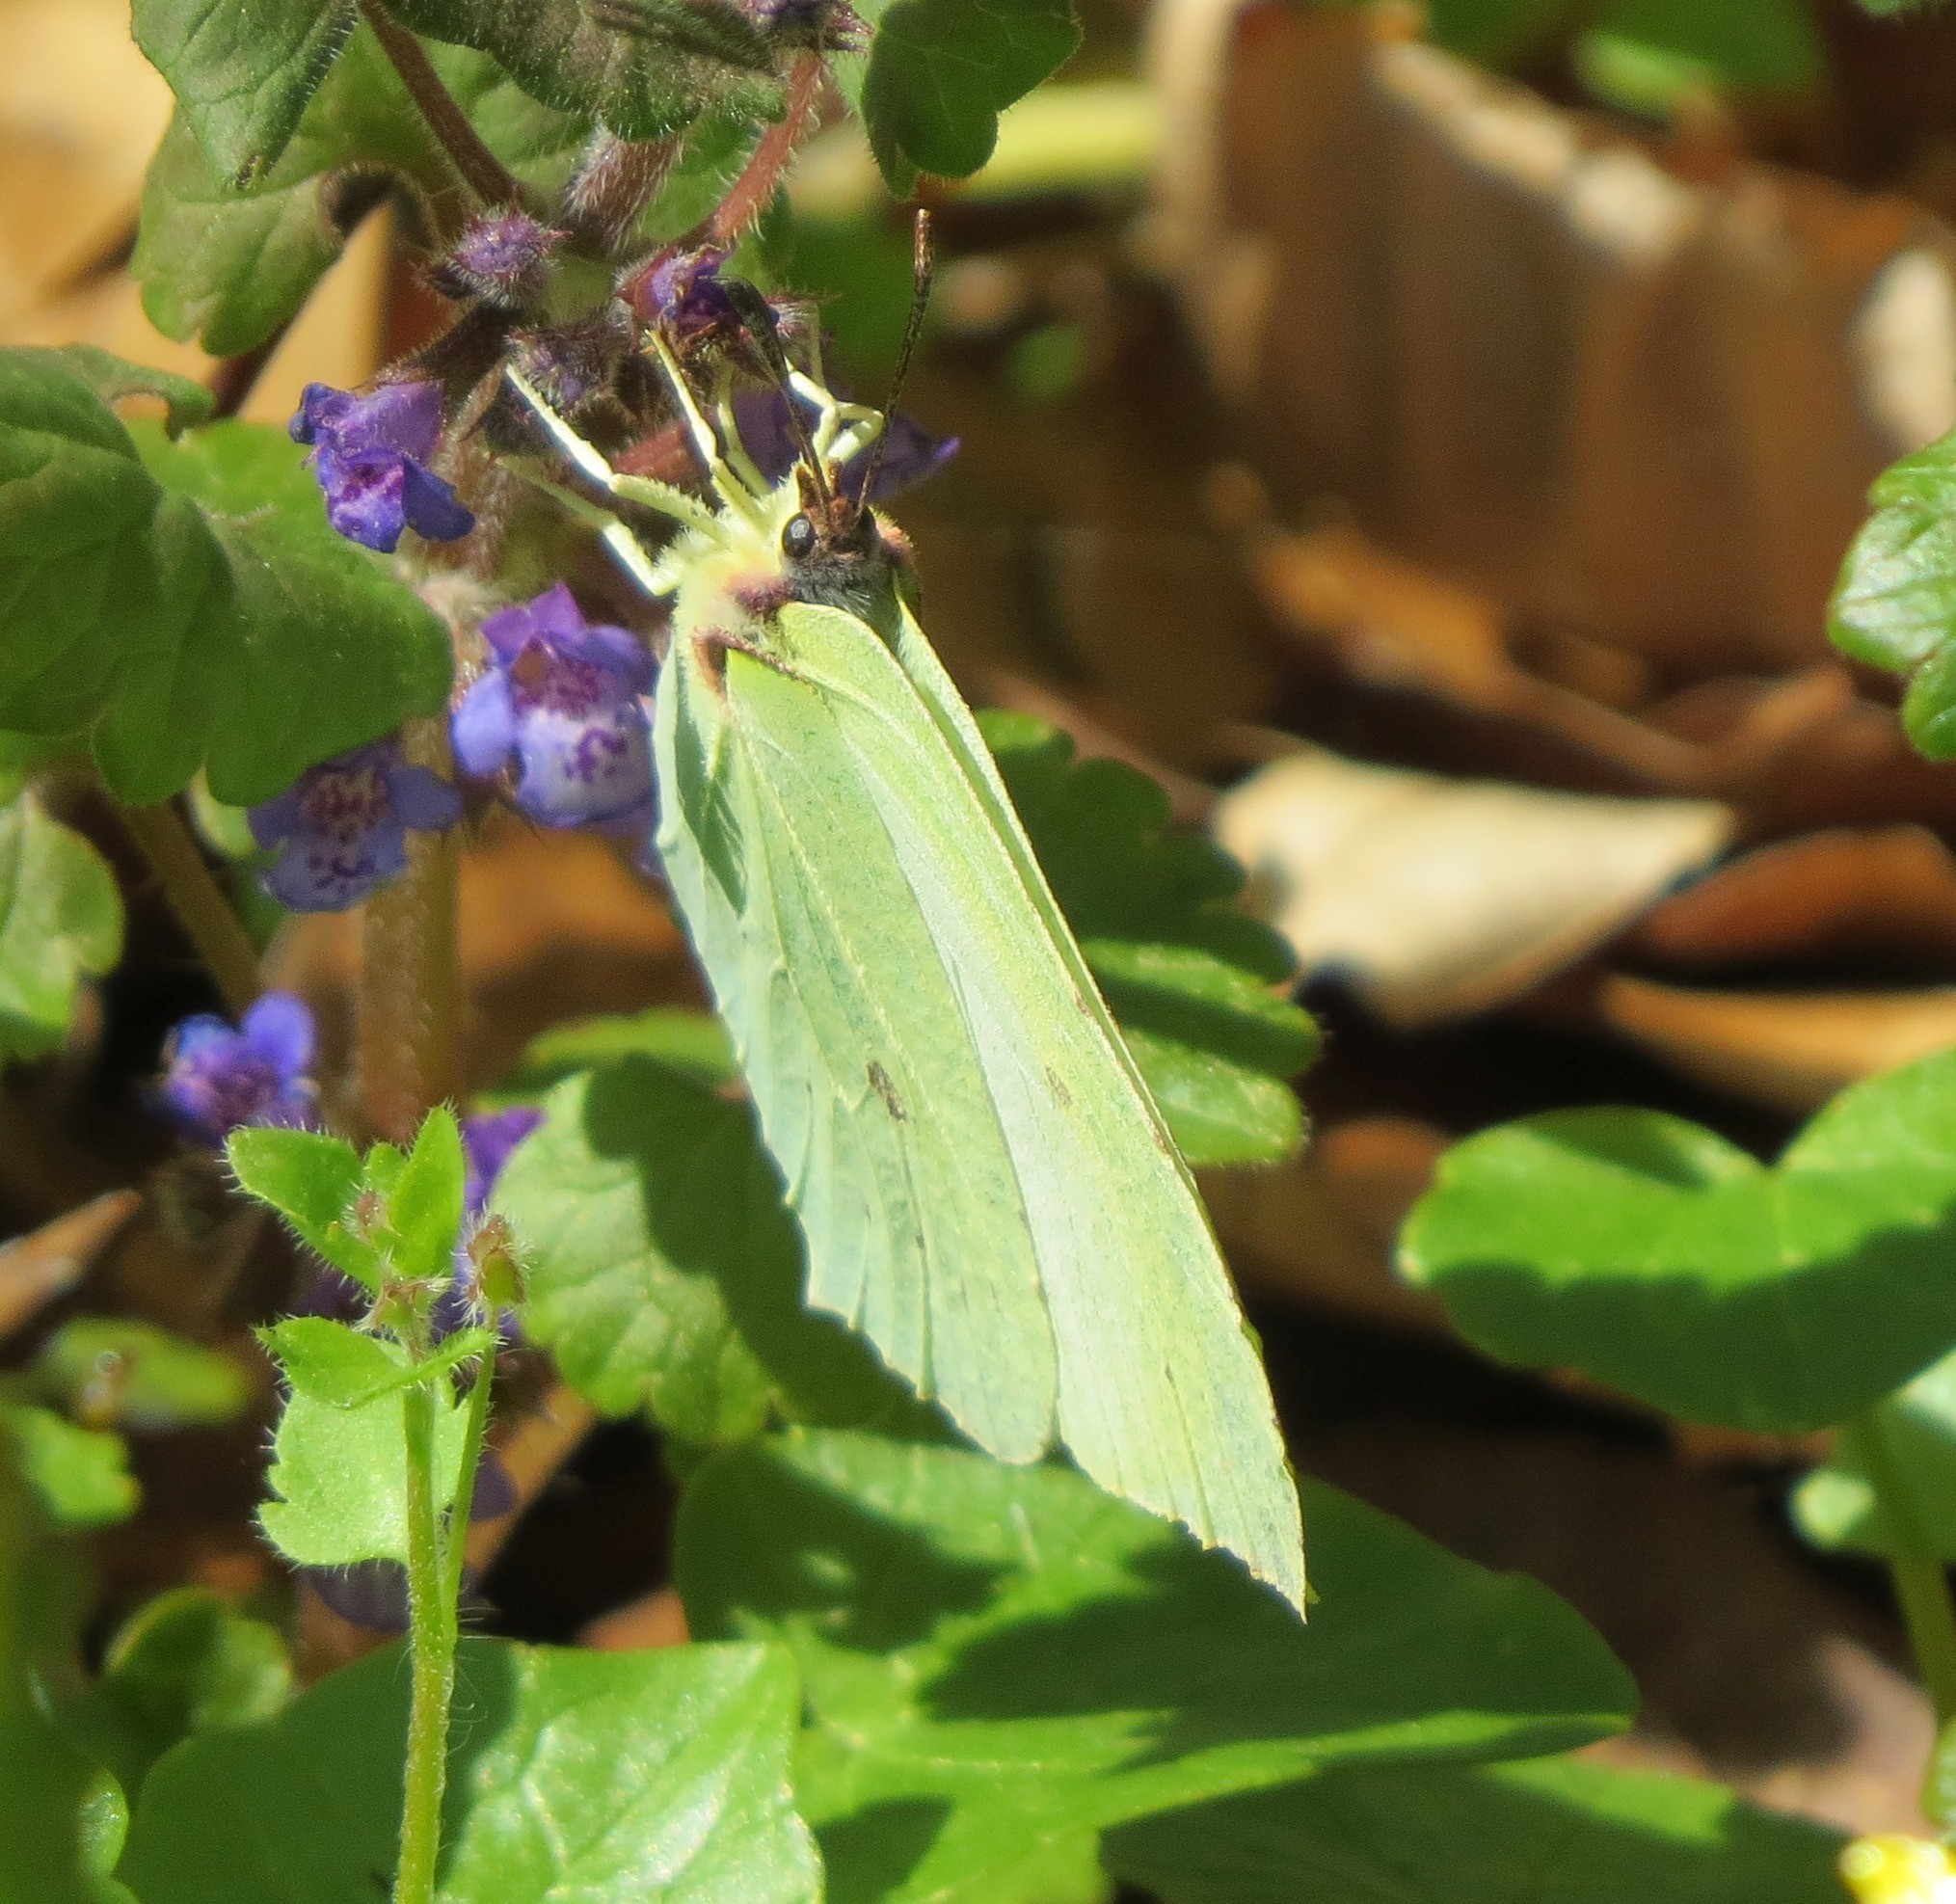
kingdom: Animalia
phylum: Arthropoda
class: Insecta
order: Lepidoptera
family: Pieridae
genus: Gonepteryx
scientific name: Gonepteryx rhamni
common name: Brimstone
